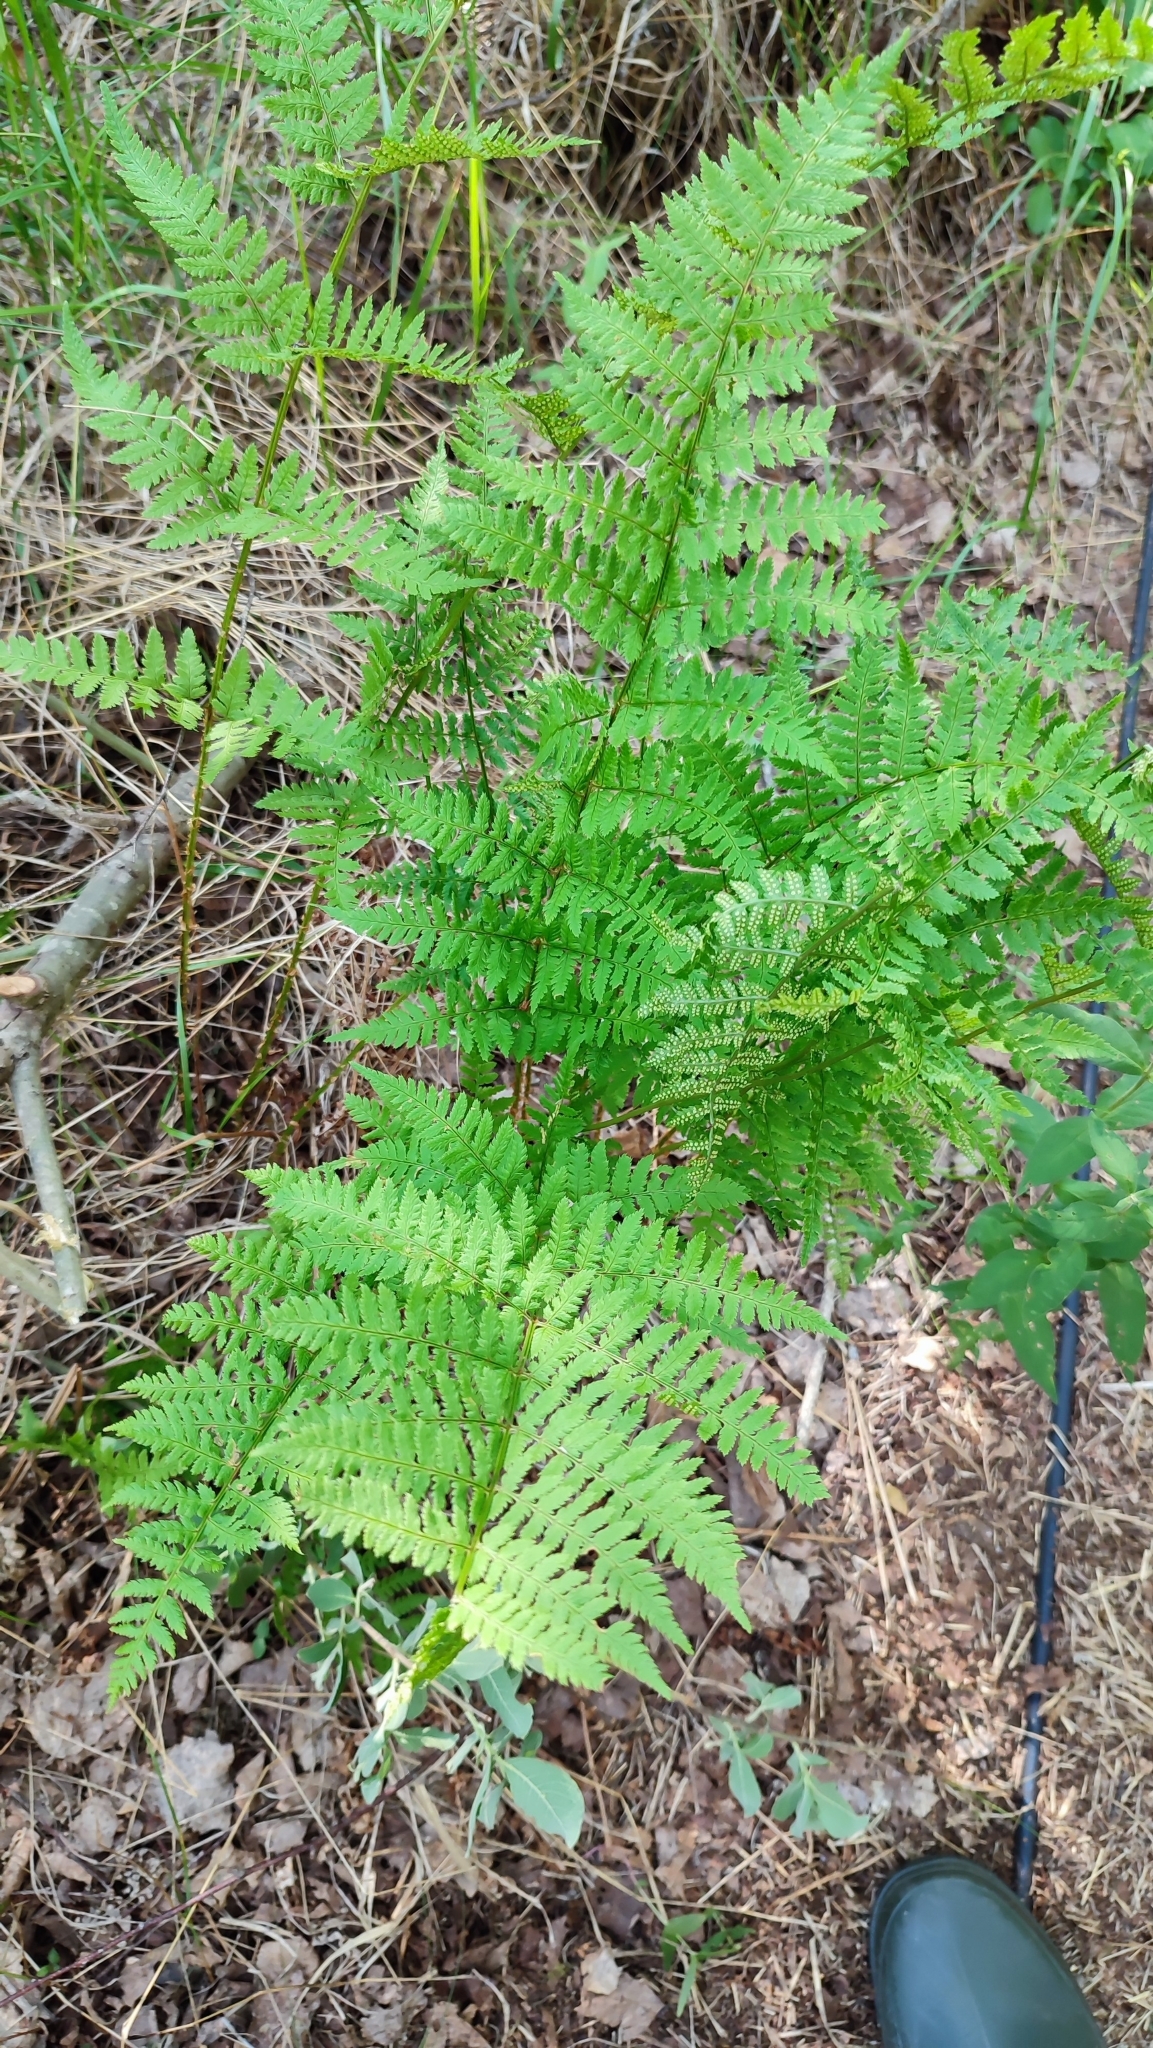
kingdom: Plantae
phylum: Tracheophyta
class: Polypodiopsida
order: Polypodiales
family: Dryopteridaceae
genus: Dryopteris
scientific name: Dryopteris carthusiana
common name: Narrow buckler-fern
